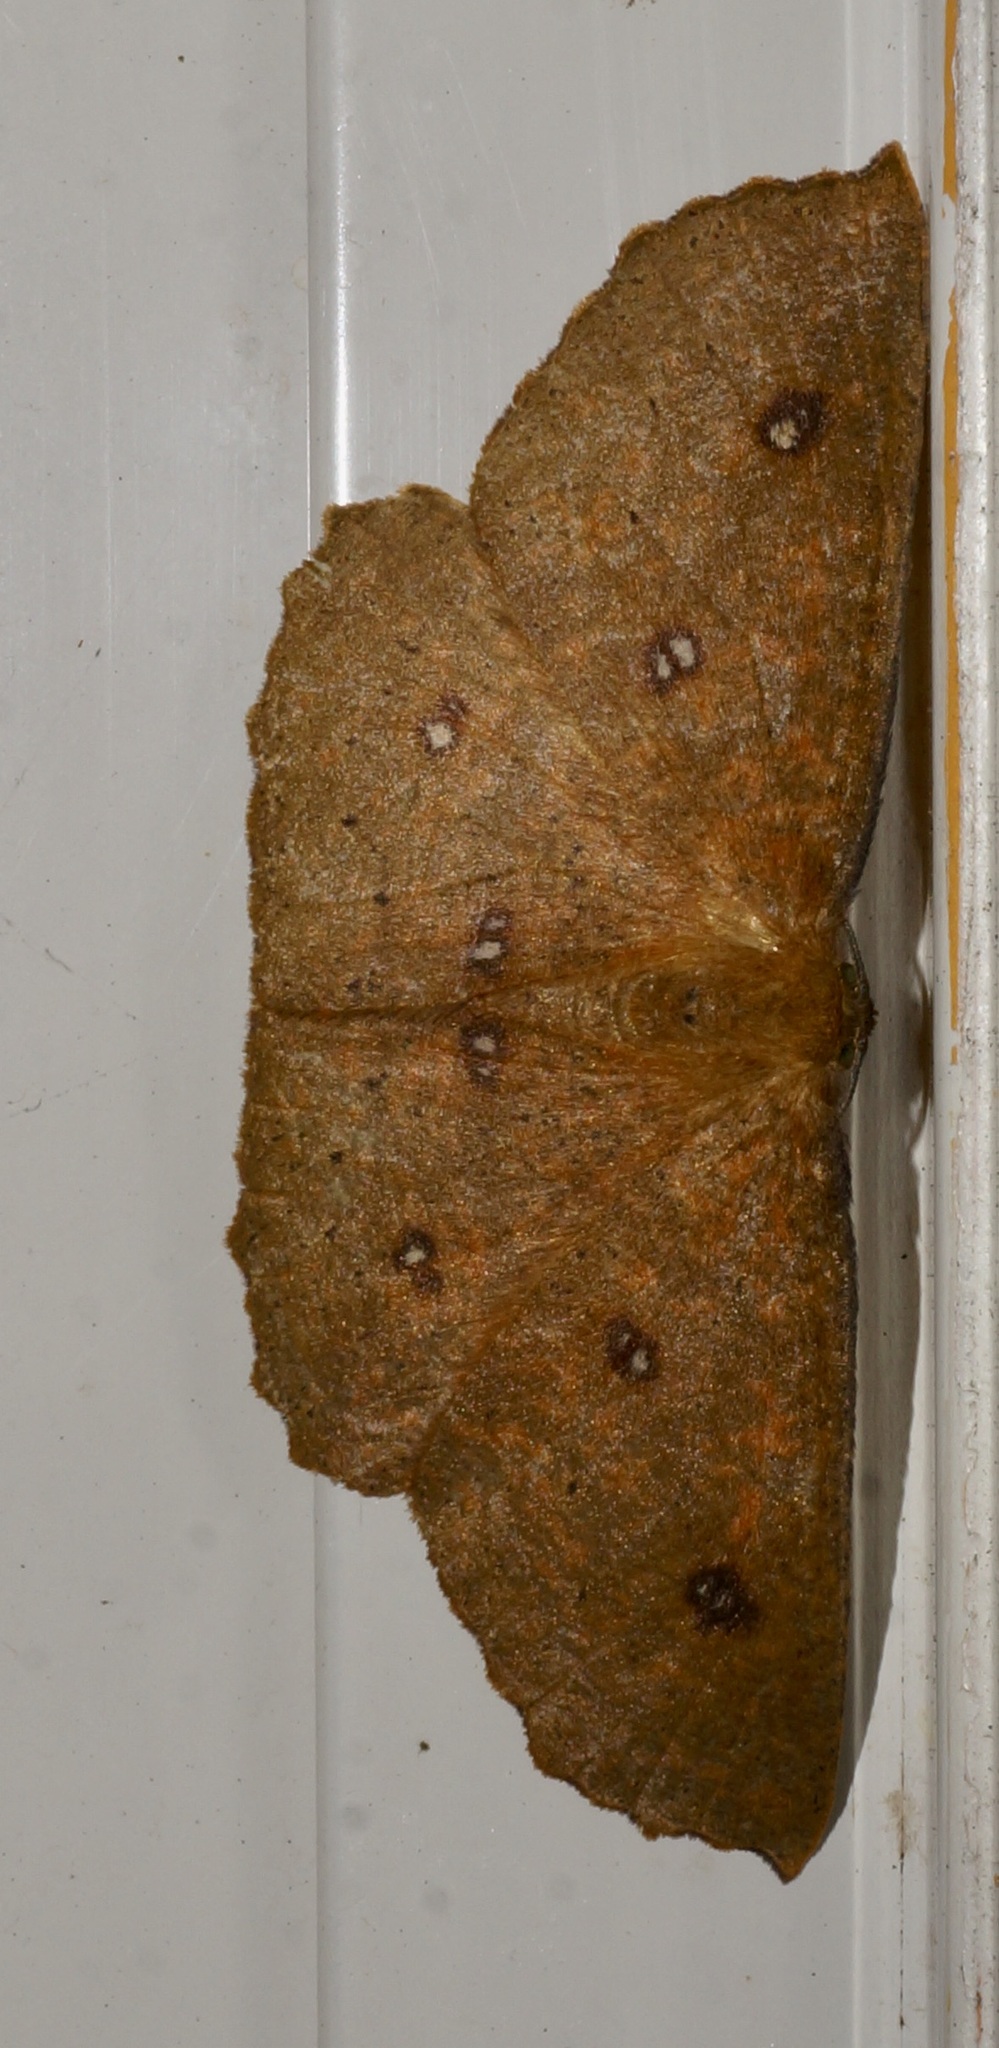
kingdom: Animalia
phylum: Arthropoda
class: Insecta
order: Lepidoptera
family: Geometridae
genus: Xyridacma
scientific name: Xyridacma alectoraria
